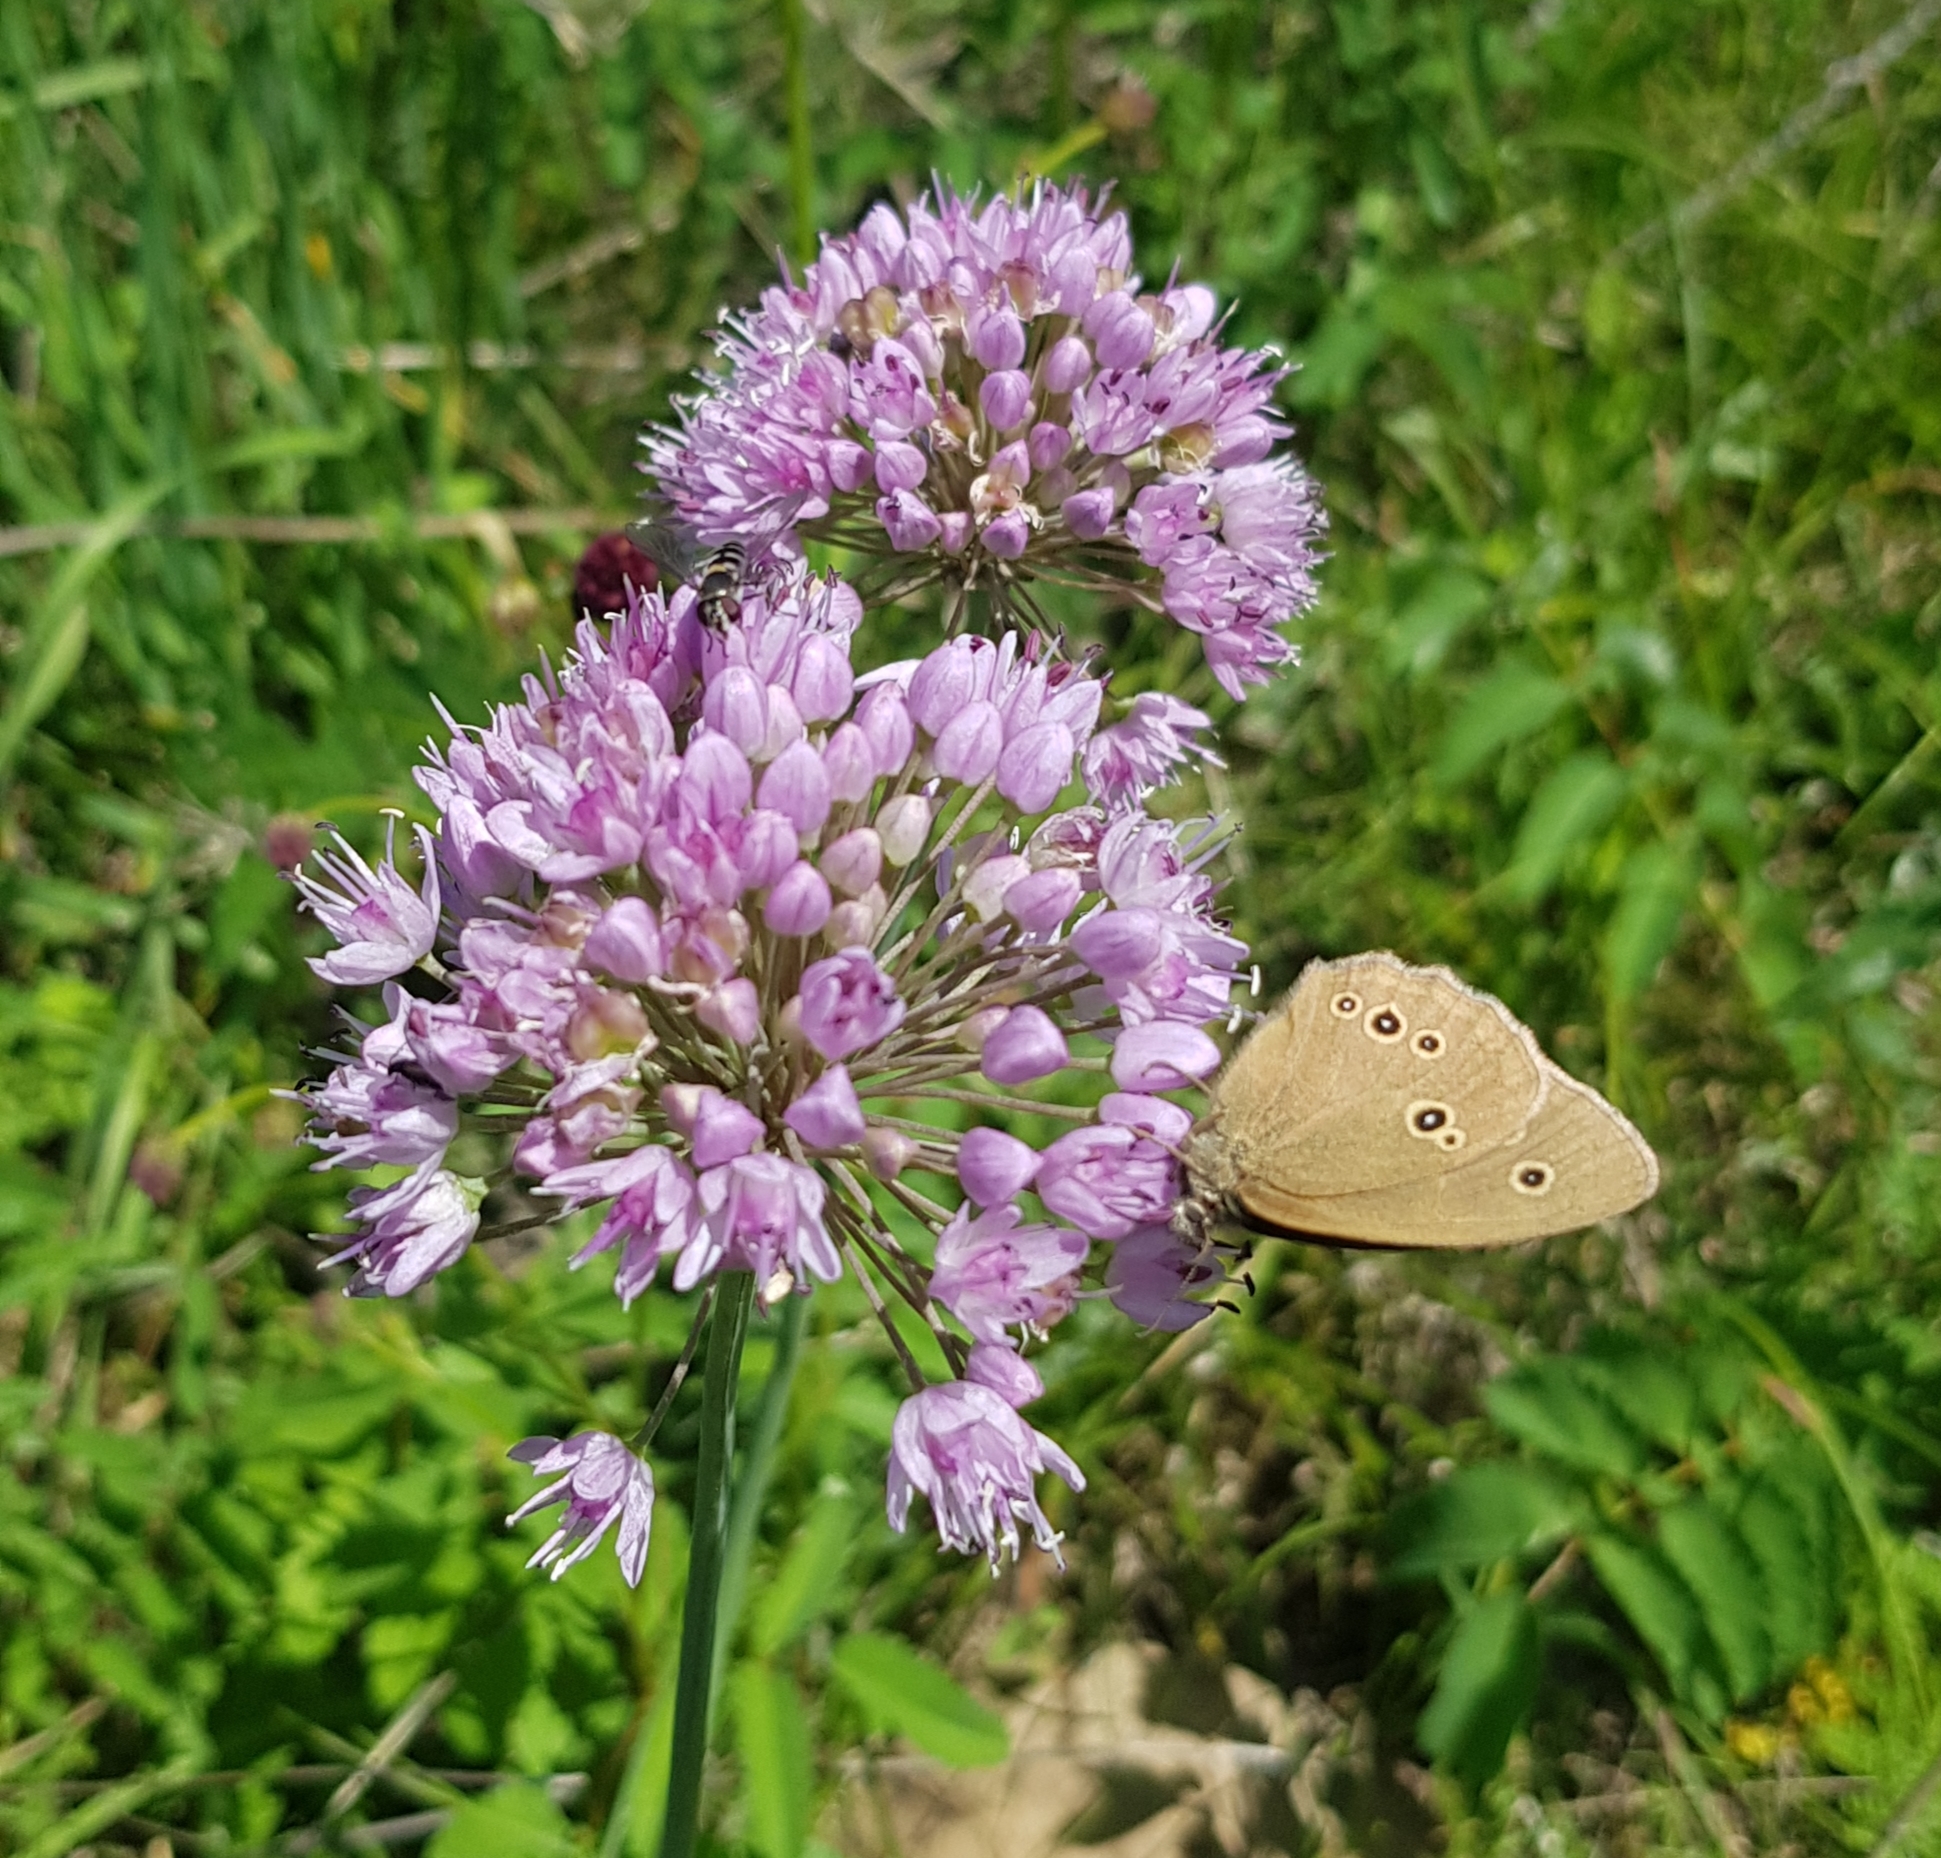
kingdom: Plantae
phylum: Tracheophyta
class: Liliopsida
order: Asparagales
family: Amaryllidaceae
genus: Allium
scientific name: Allium senescens
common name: German garlic
